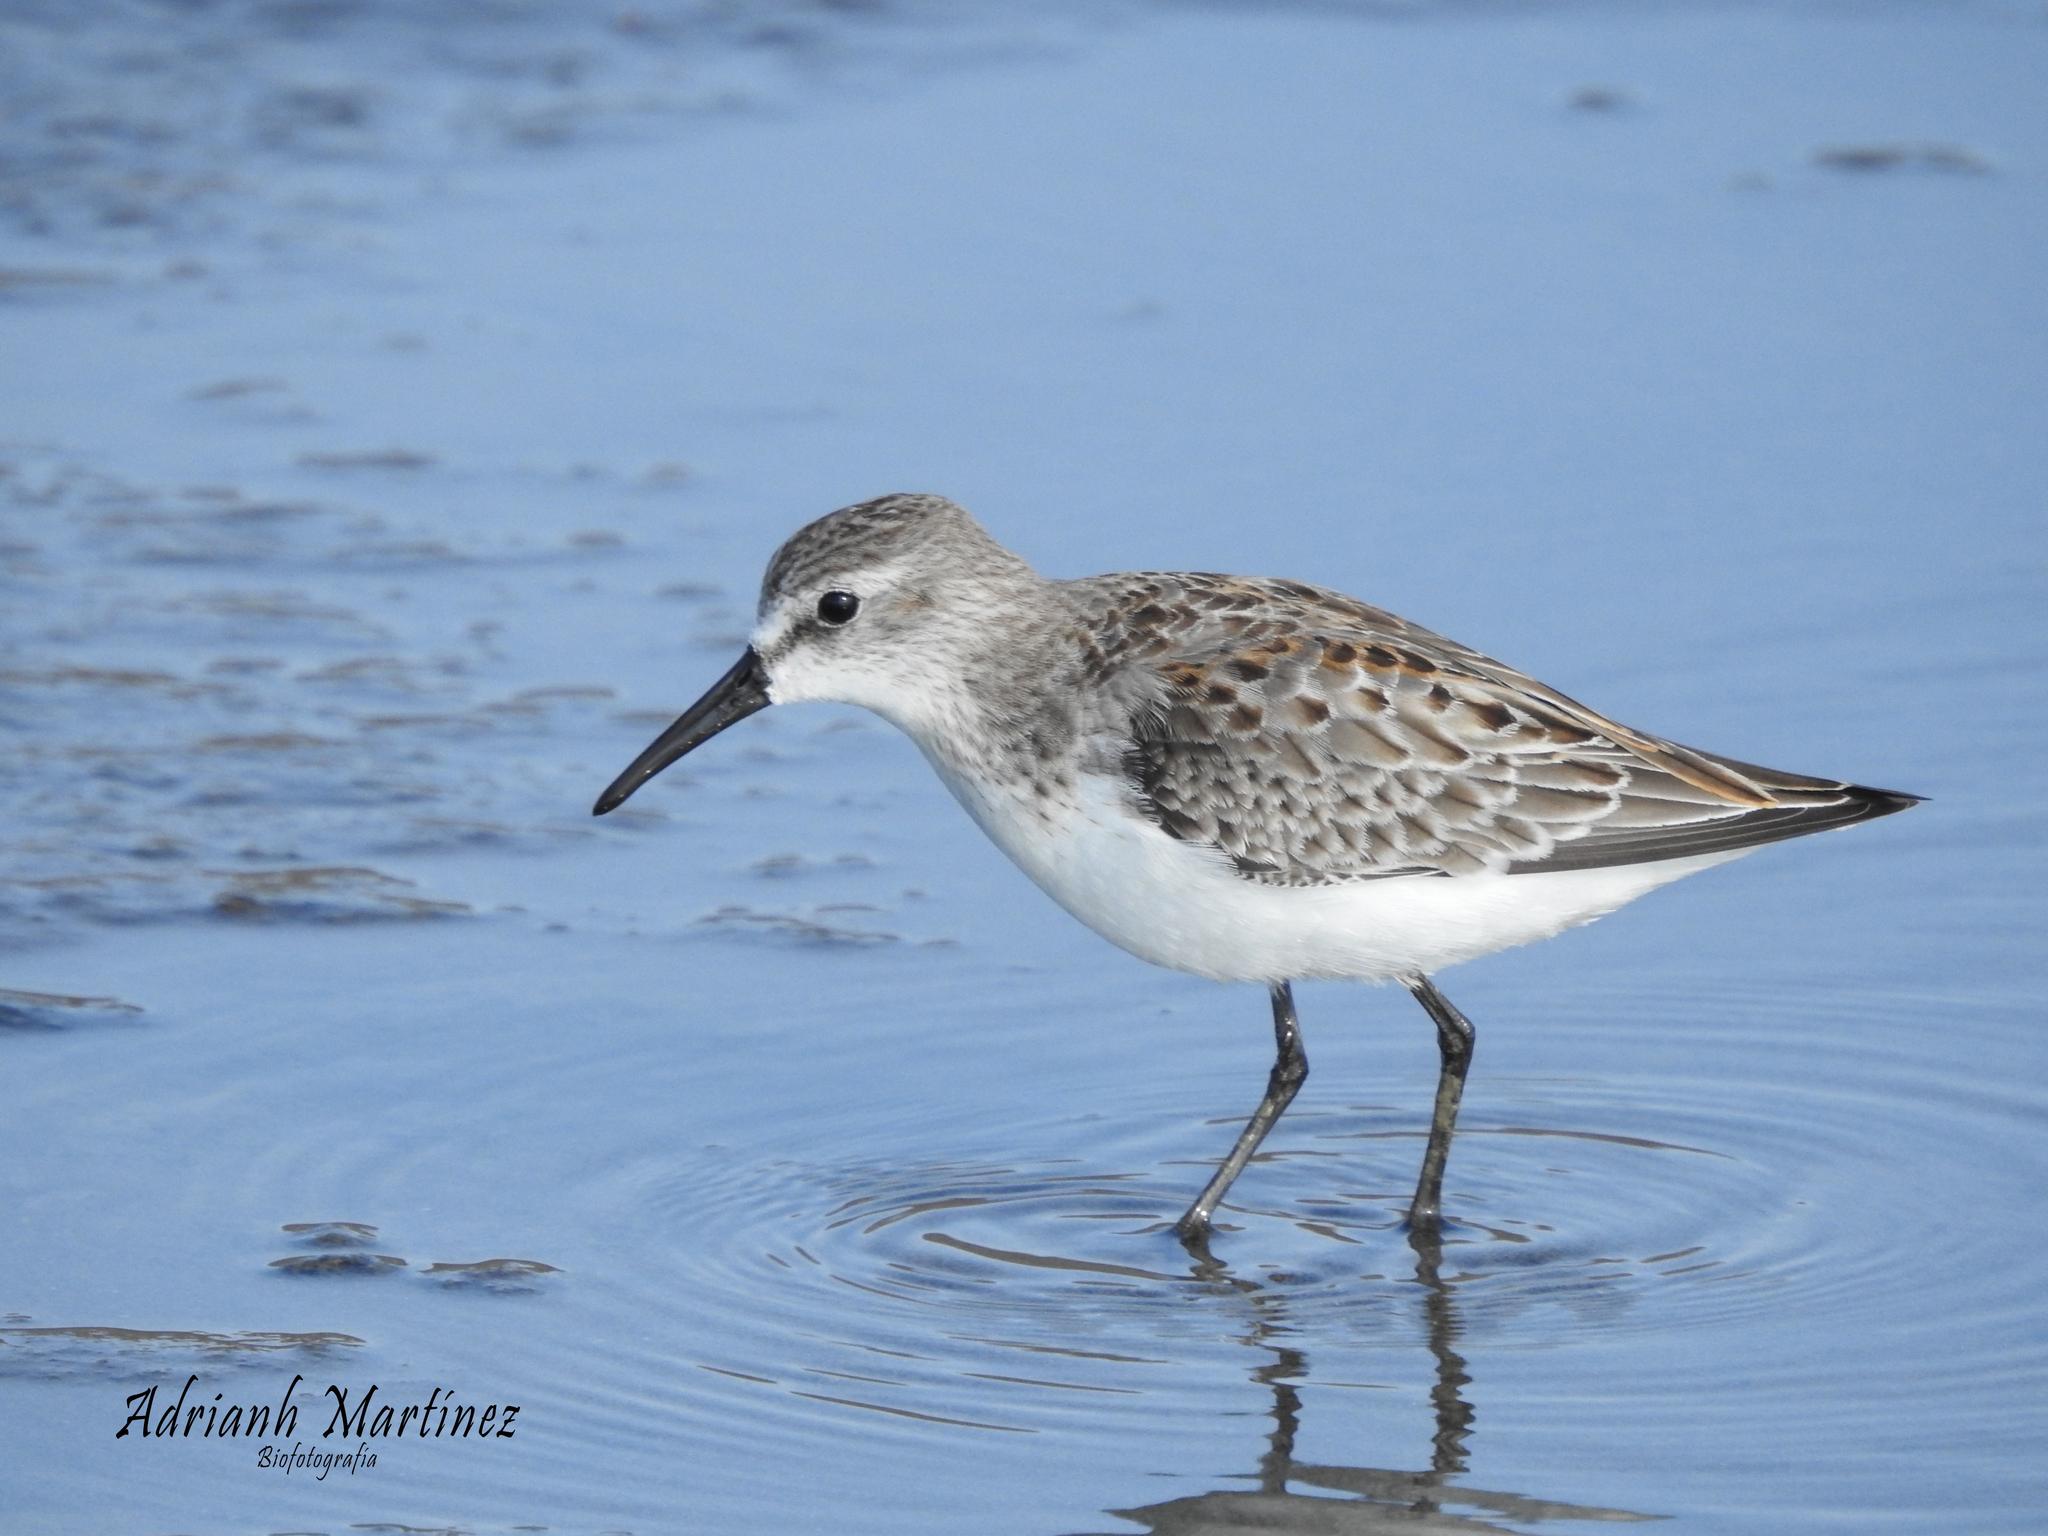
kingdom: Animalia
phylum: Chordata
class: Aves
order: Charadriiformes
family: Scolopacidae
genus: Calidris
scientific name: Calidris mauri
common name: Western sandpiper
